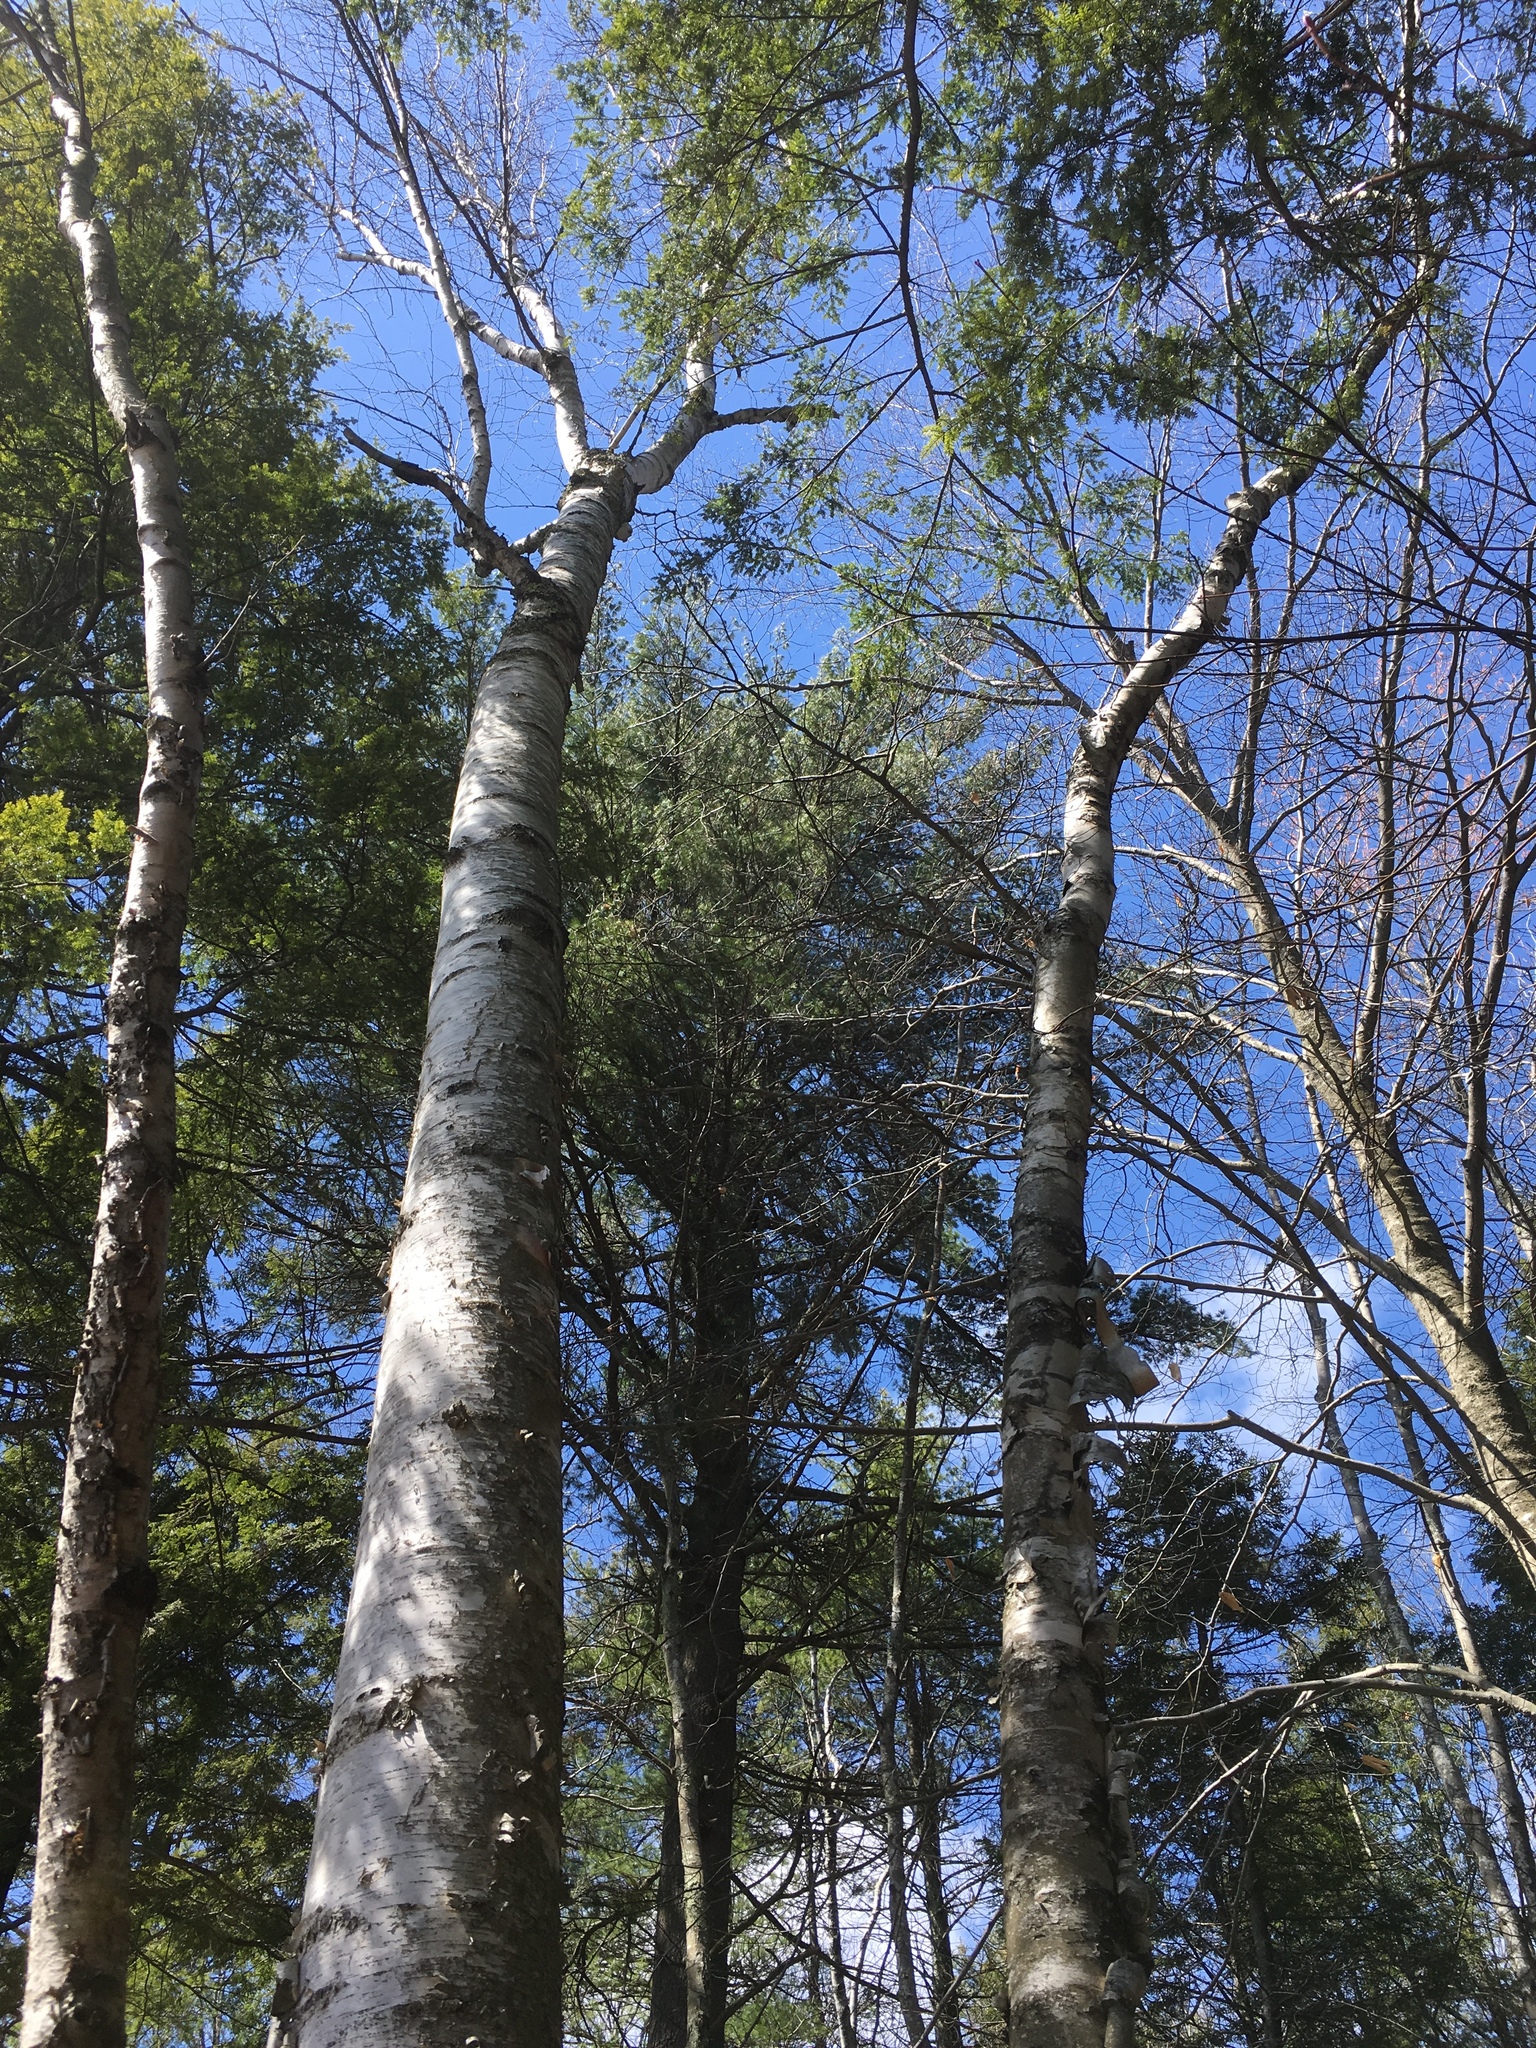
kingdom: Plantae
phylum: Tracheophyta
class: Magnoliopsida
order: Fagales
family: Betulaceae
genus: Betula
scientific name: Betula papyrifera
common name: Paper birch
